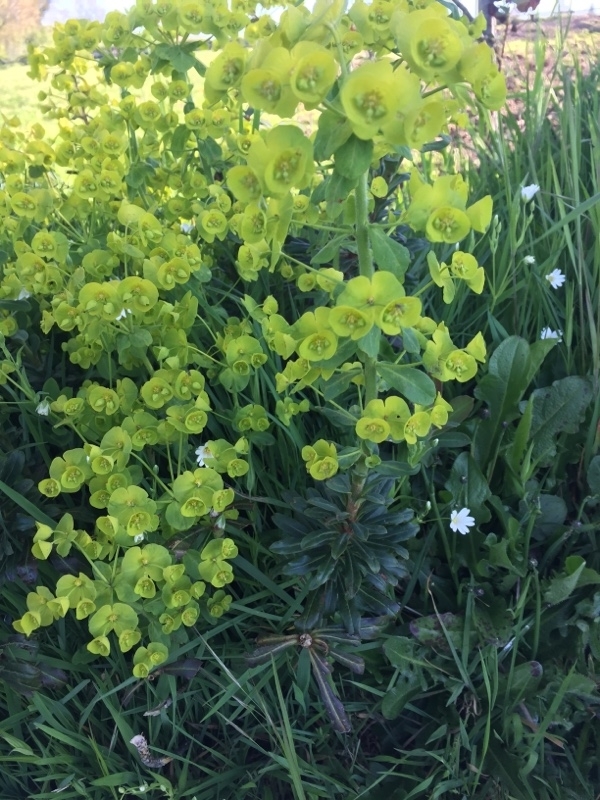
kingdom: Plantae
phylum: Tracheophyta
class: Magnoliopsida
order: Malpighiales
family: Euphorbiaceae
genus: Euphorbia
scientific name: Euphorbia amygdaloides
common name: Wood spurge
